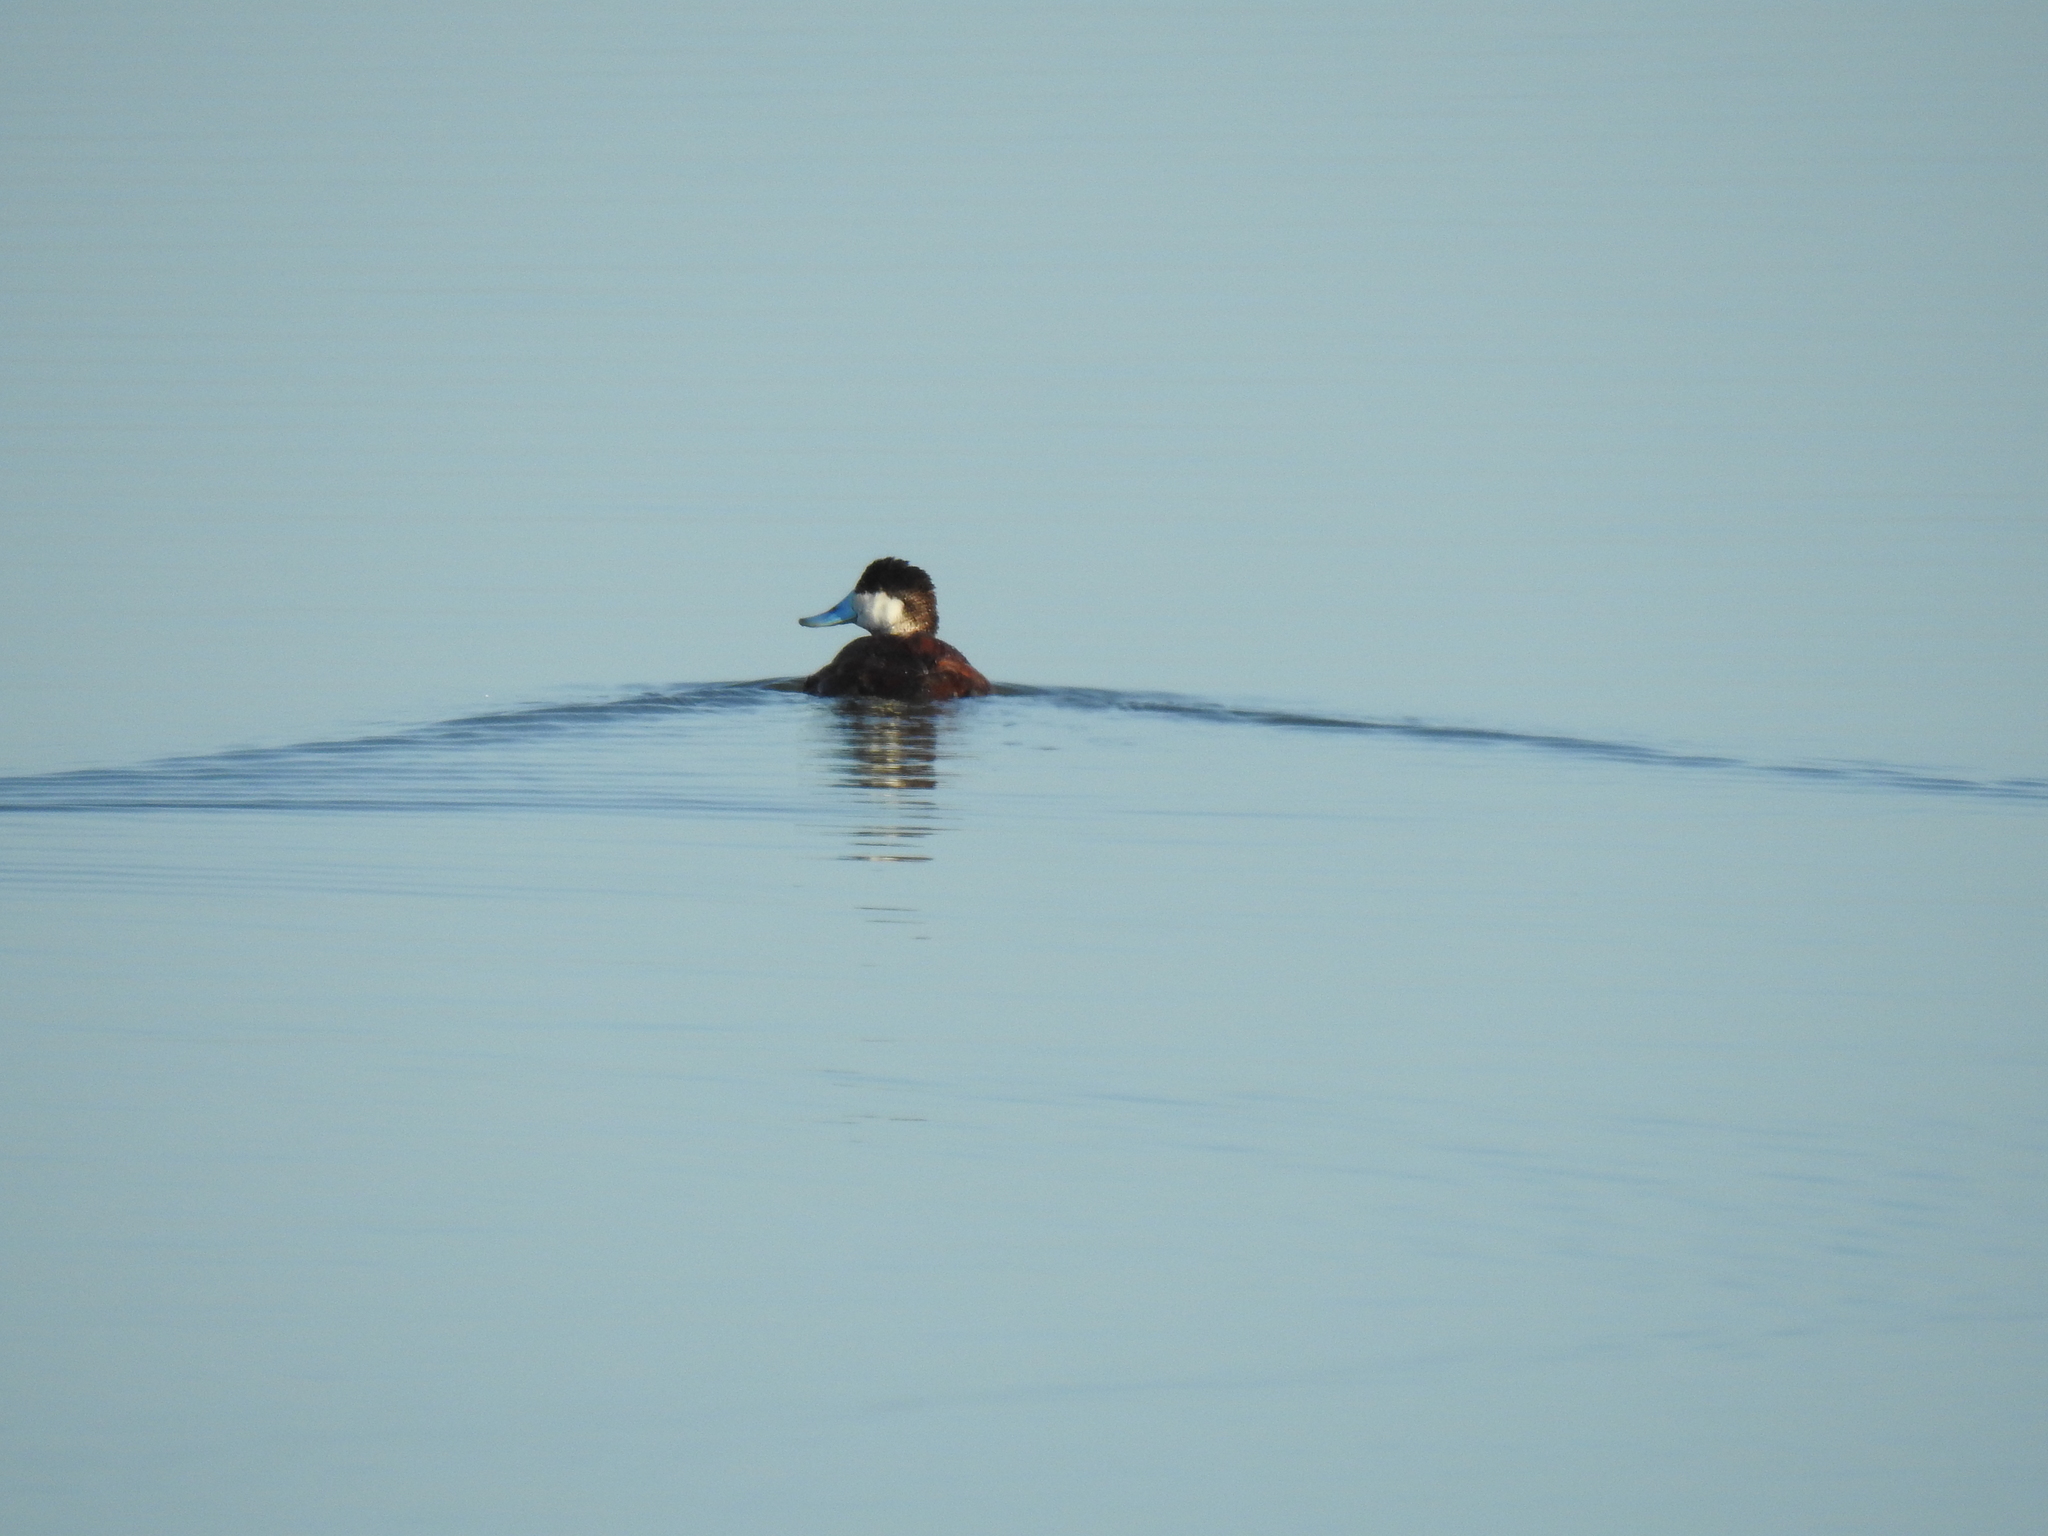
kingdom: Animalia
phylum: Chordata
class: Aves
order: Anseriformes
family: Anatidae
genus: Oxyura
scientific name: Oxyura jamaicensis
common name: Ruddy duck
